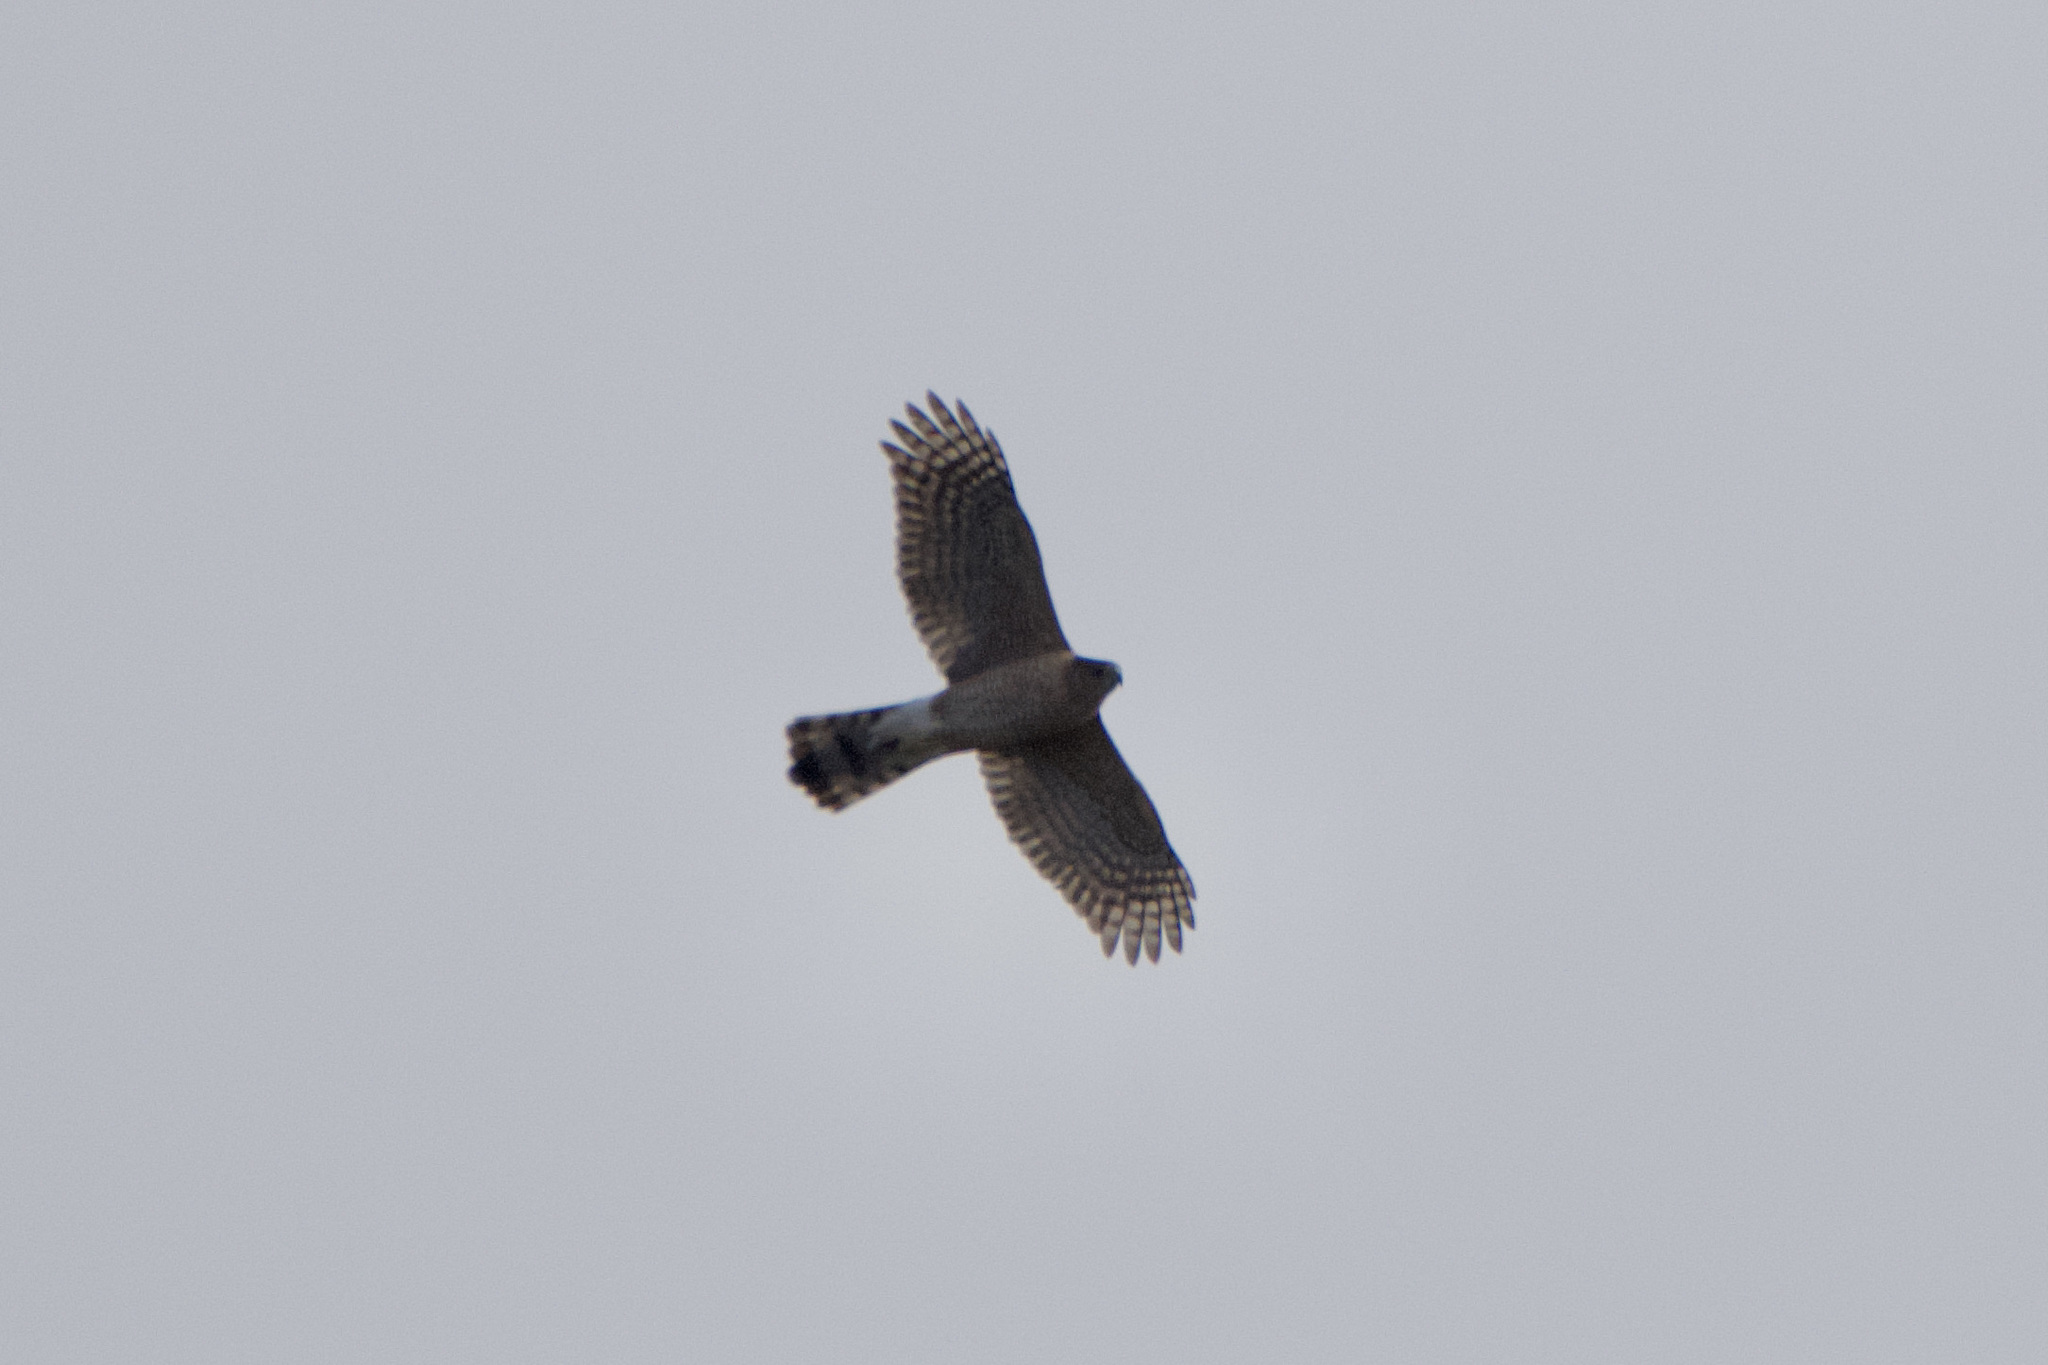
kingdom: Animalia
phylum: Chordata
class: Aves
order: Accipitriformes
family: Accipitridae
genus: Accipiter
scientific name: Accipiter cooperii
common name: Cooper's hawk
